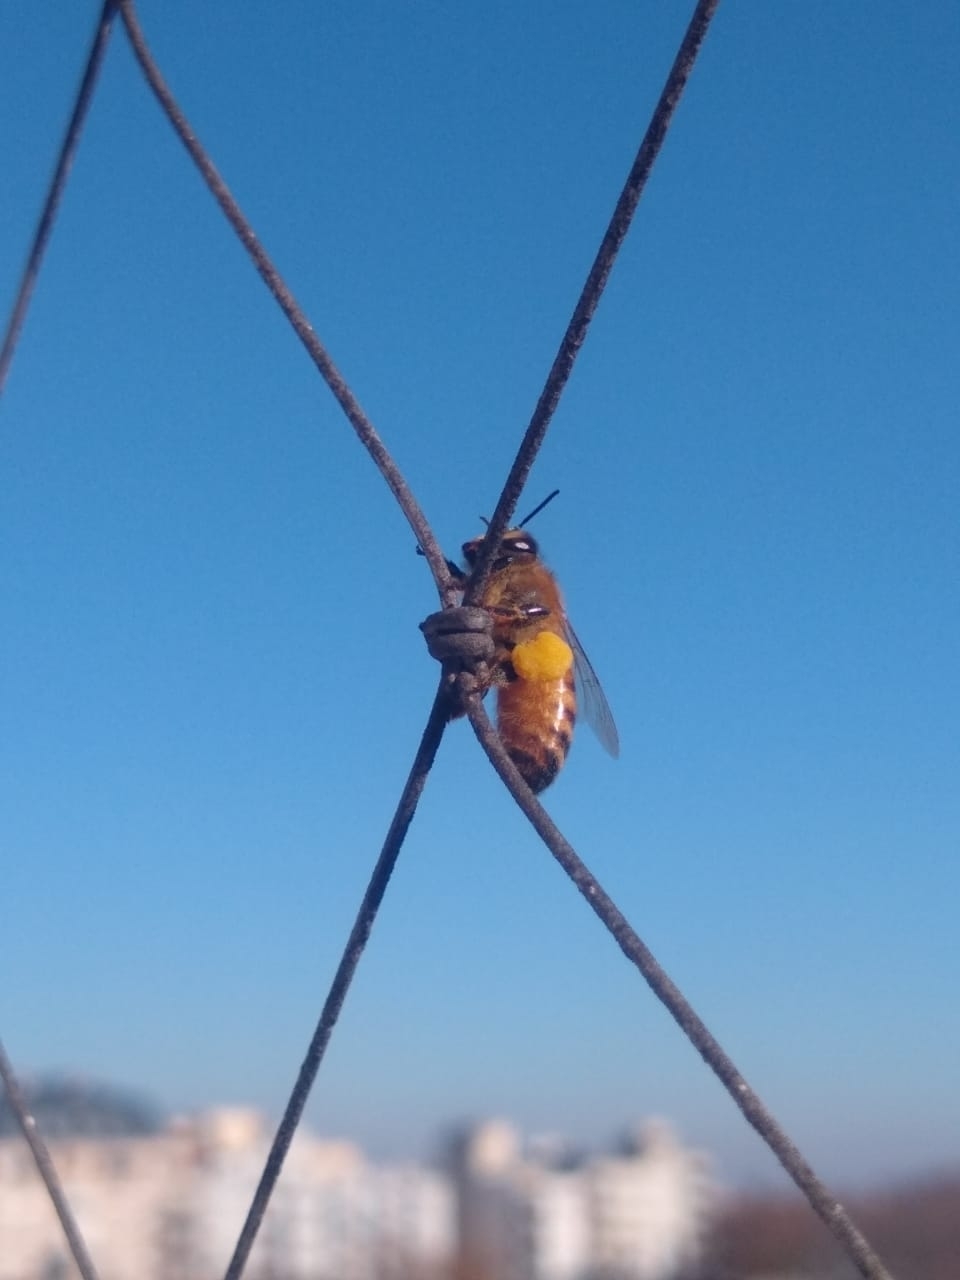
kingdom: Animalia
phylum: Arthropoda
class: Insecta
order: Hymenoptera
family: Apidae
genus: Apis
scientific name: Apis mellifera
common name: Honey bee
